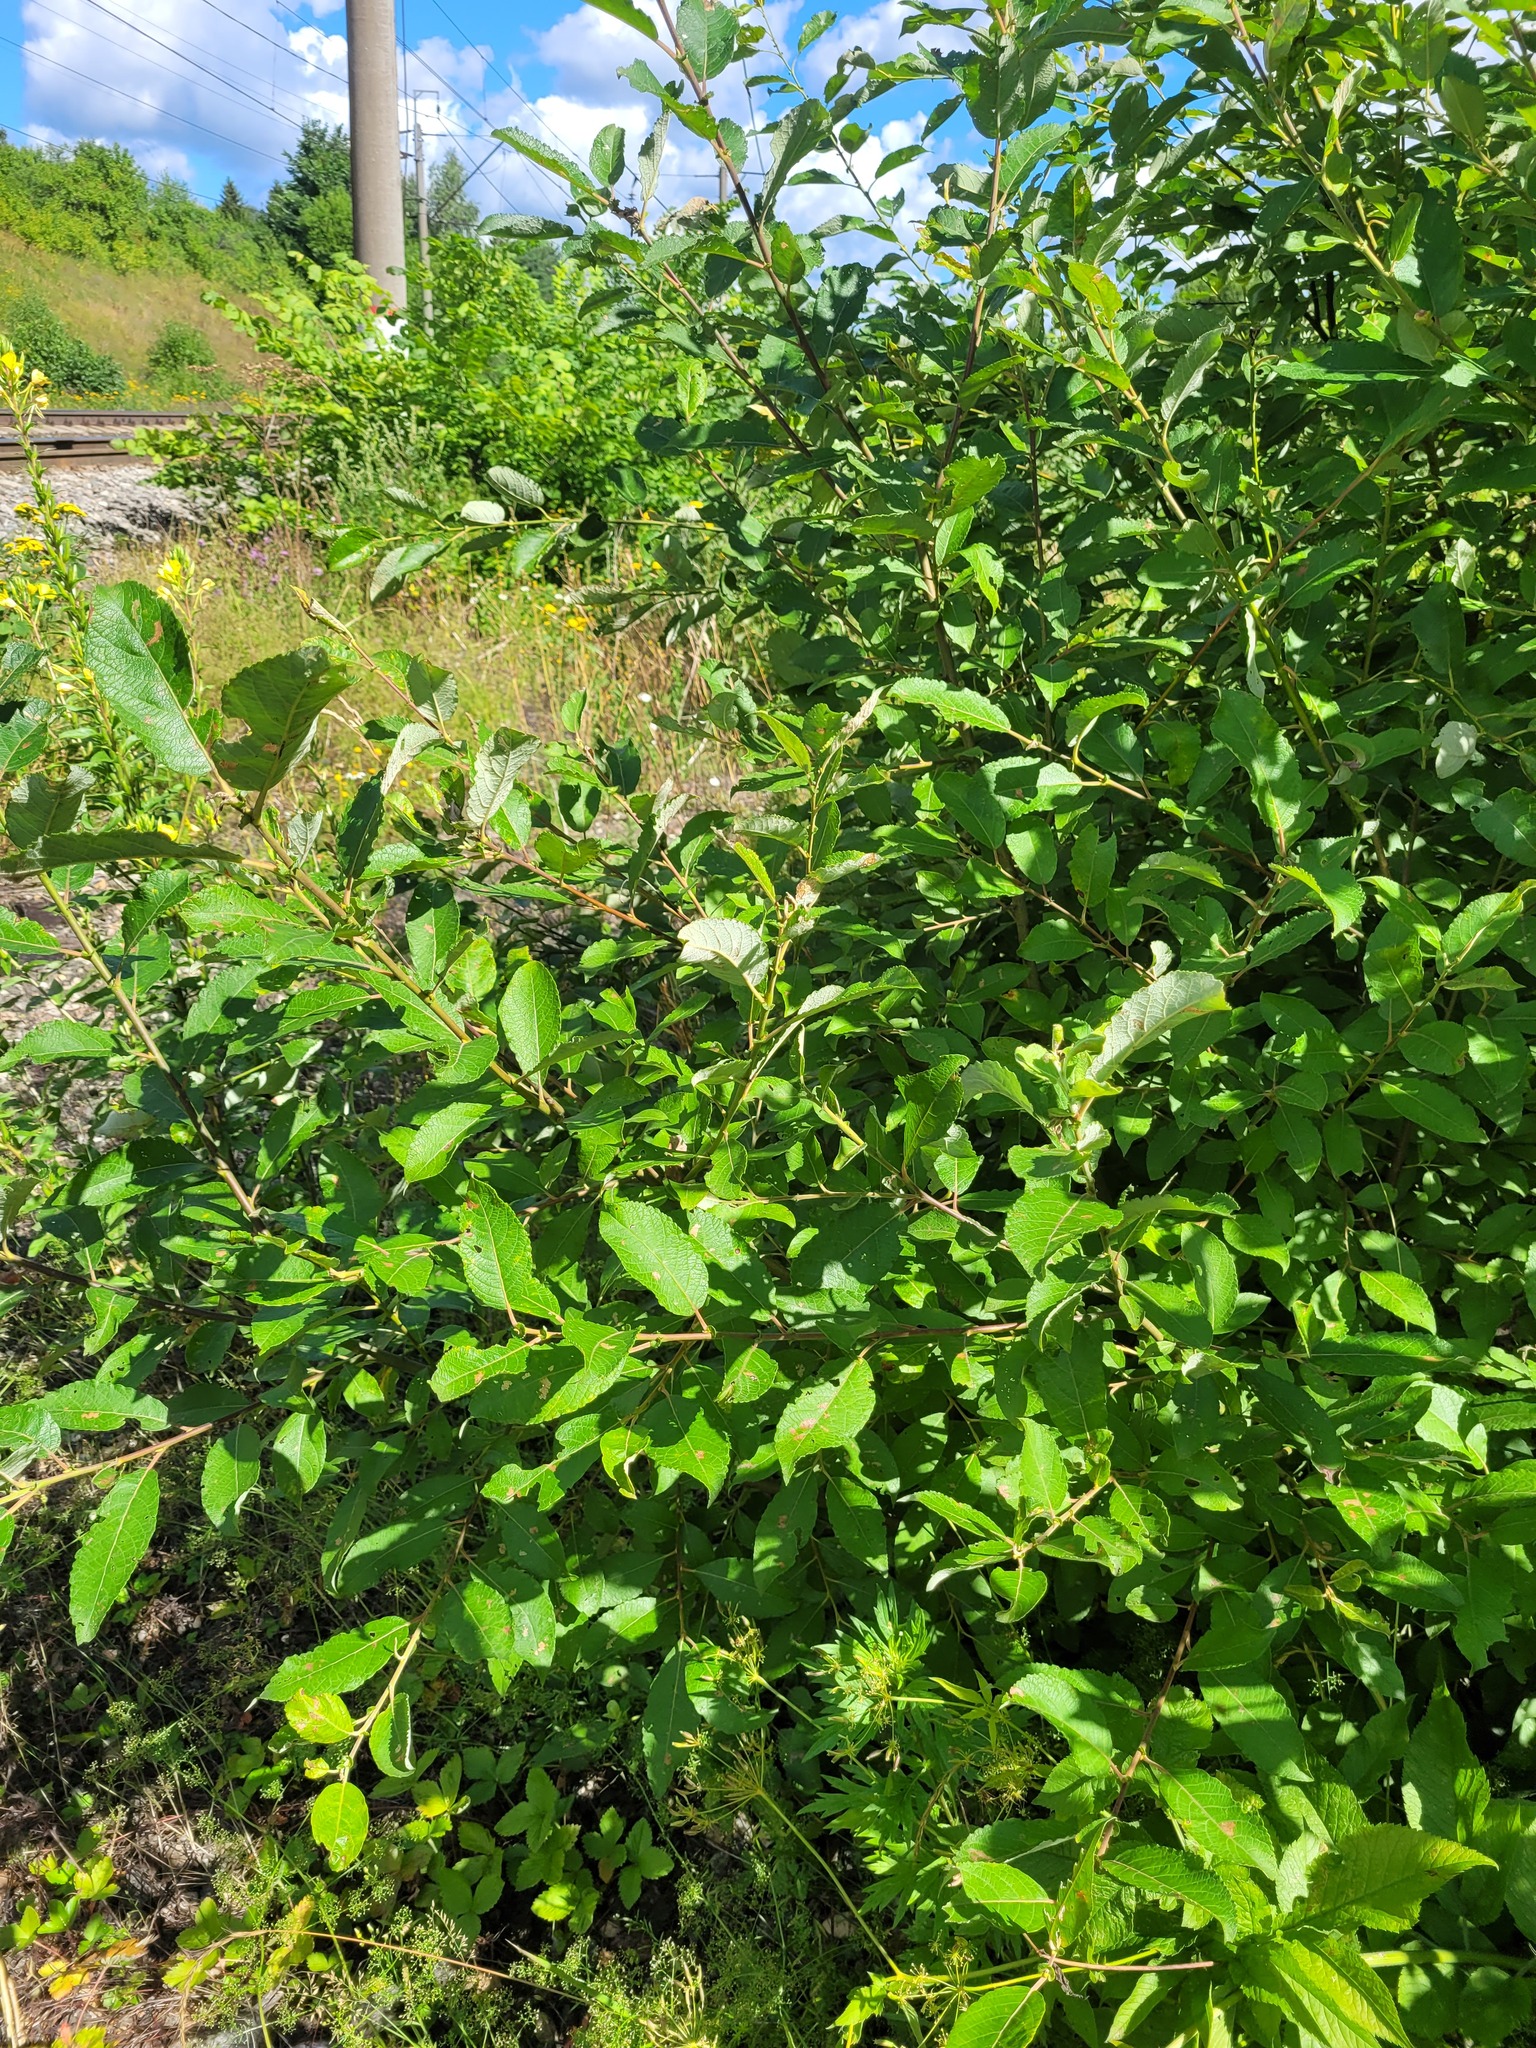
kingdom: Plantae
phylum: Tracheophyta
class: Magnoliopsida
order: Malpighiales
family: Salicaceae
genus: Salix
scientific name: Salix caprea
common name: Goat willow
